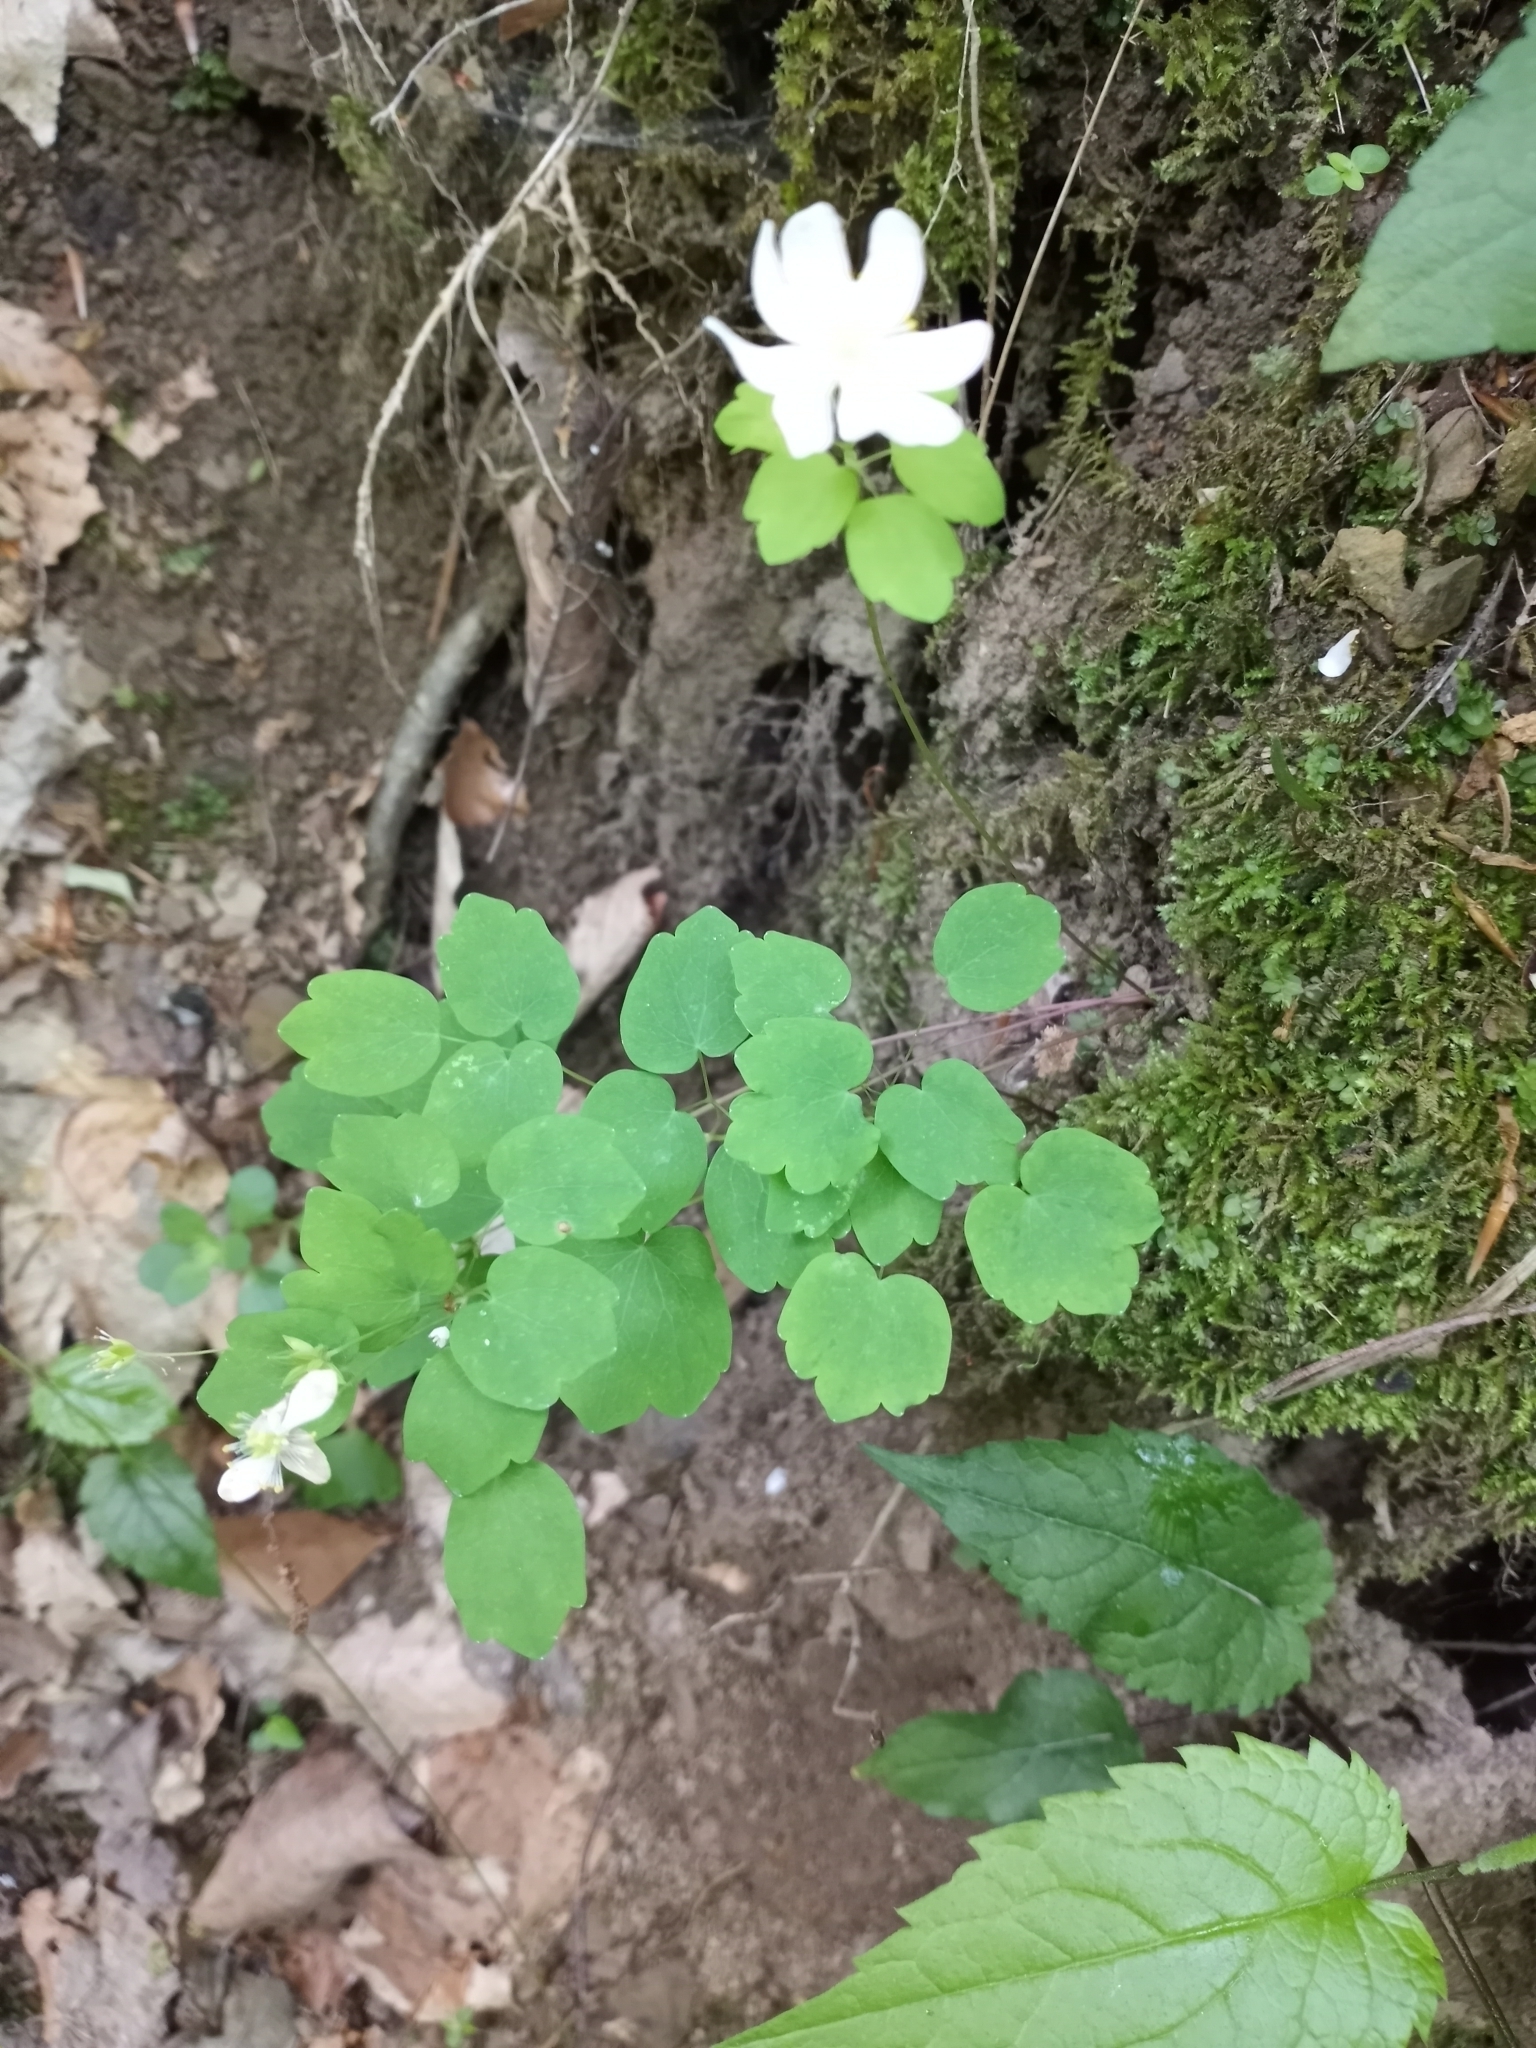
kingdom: Plantae
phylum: Tracheophyta
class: Magnoliopsida
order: Ranunculales
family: Ranunculaceae
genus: Thalictrum
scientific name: Thalictrum thalictroides
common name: Rue-anemone
